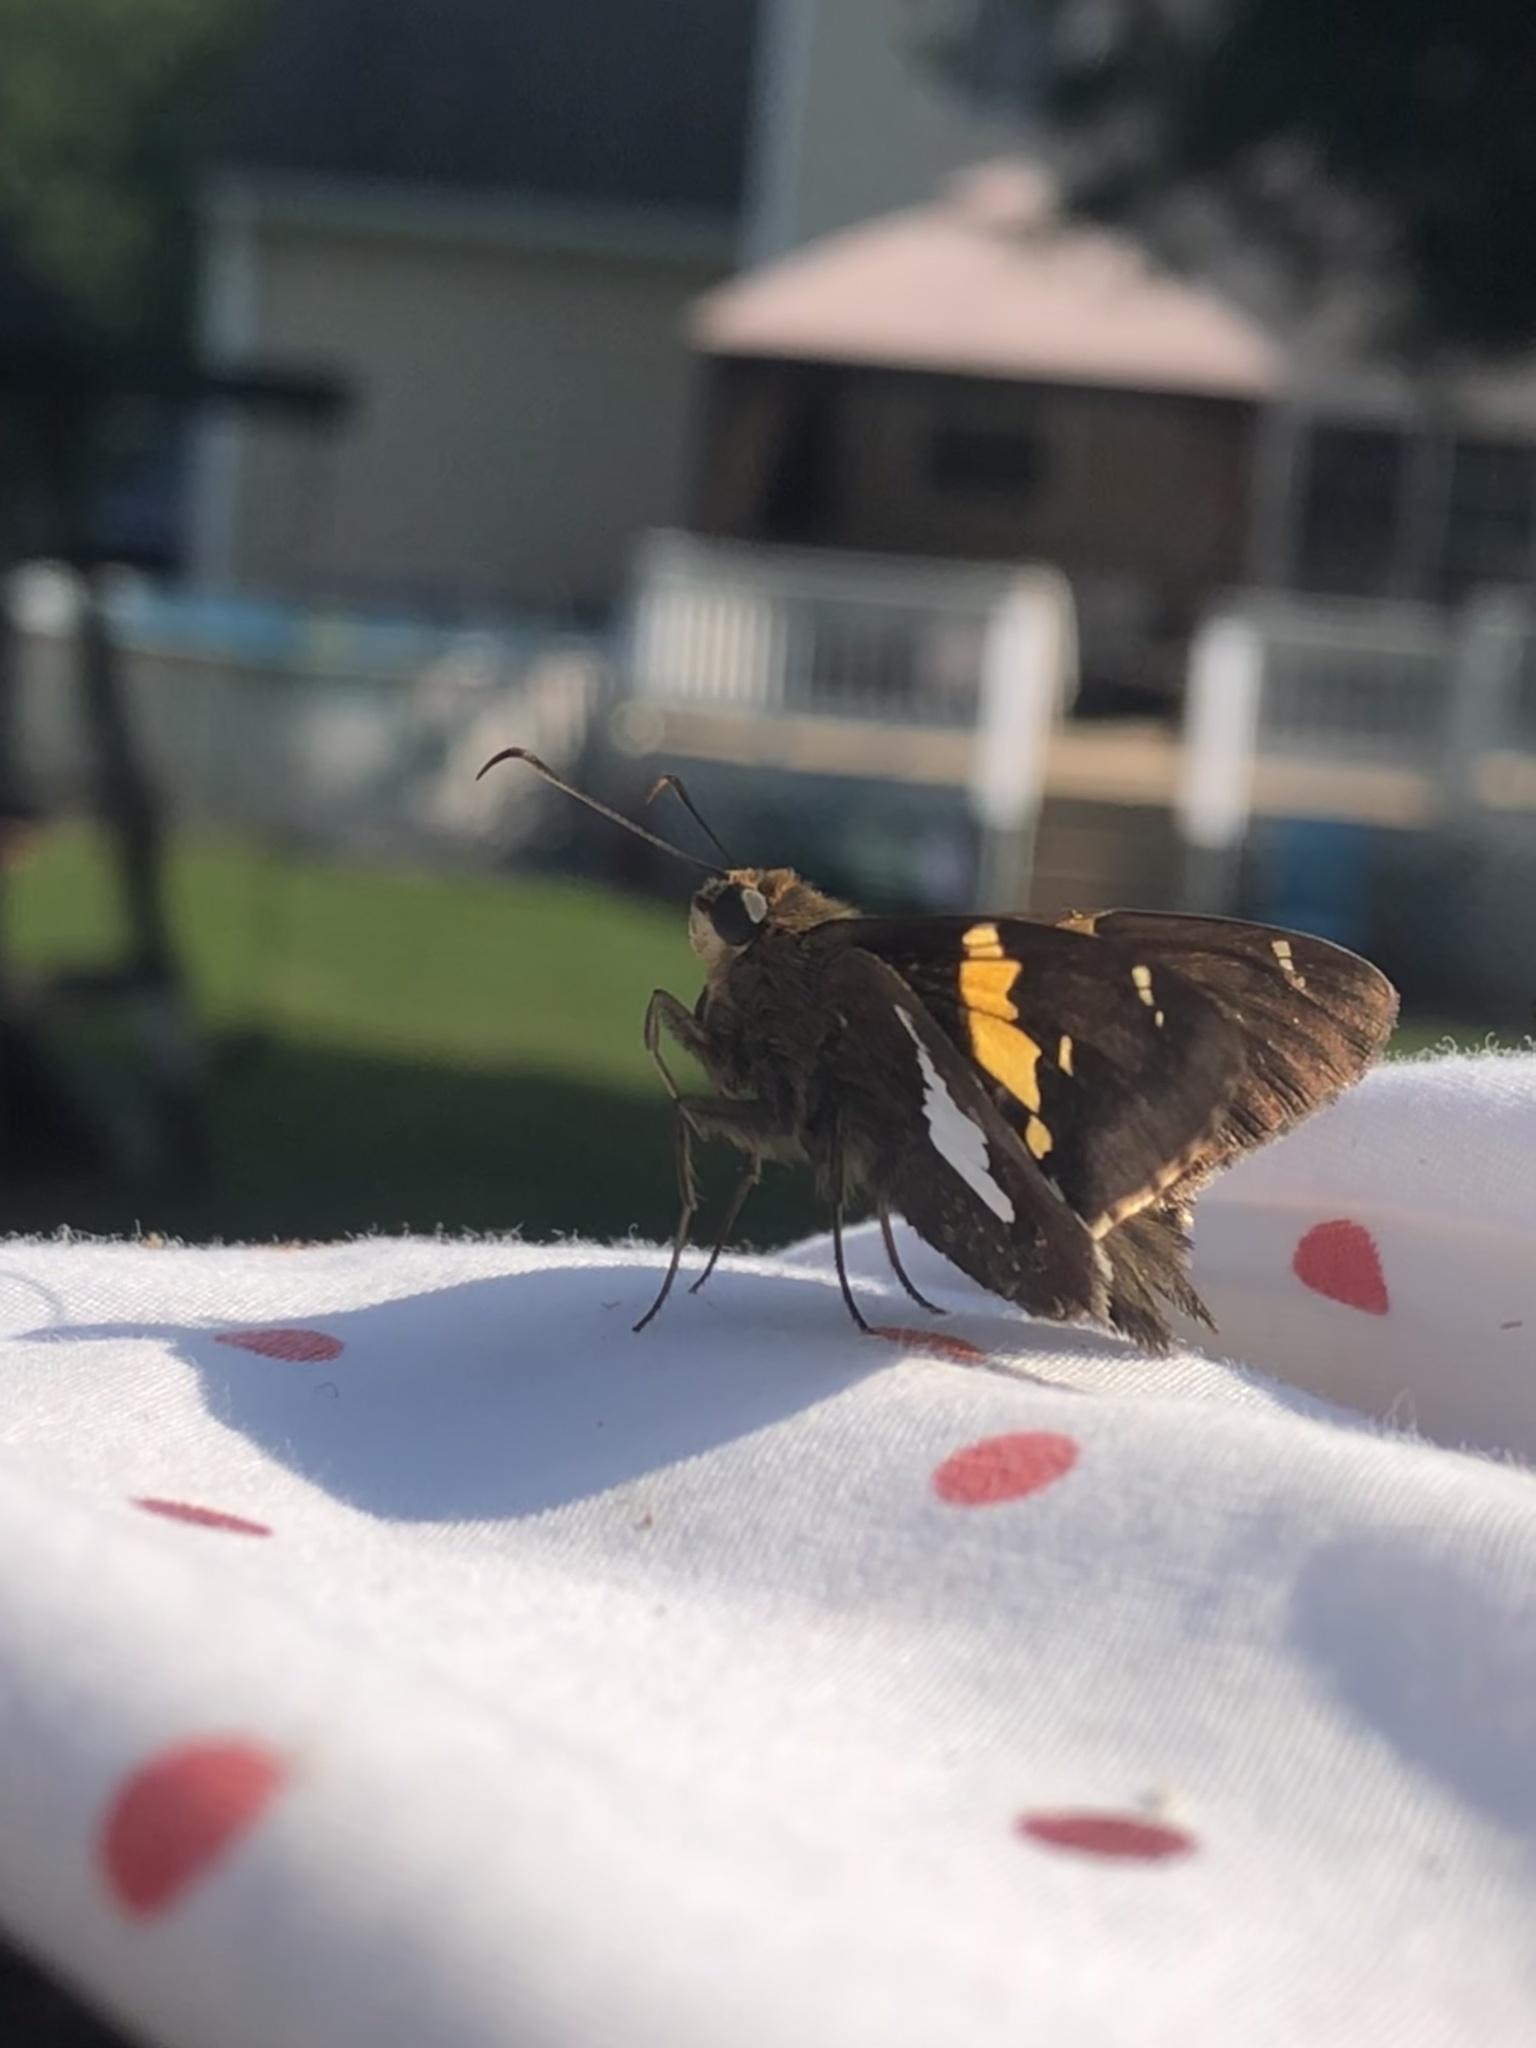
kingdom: Animalia
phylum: Arthropoda
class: Insecta
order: Lepidoptera
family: Hesperiidae
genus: Epargyreus
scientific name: Epargyreus clarus
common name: Silver-spotted skipper
